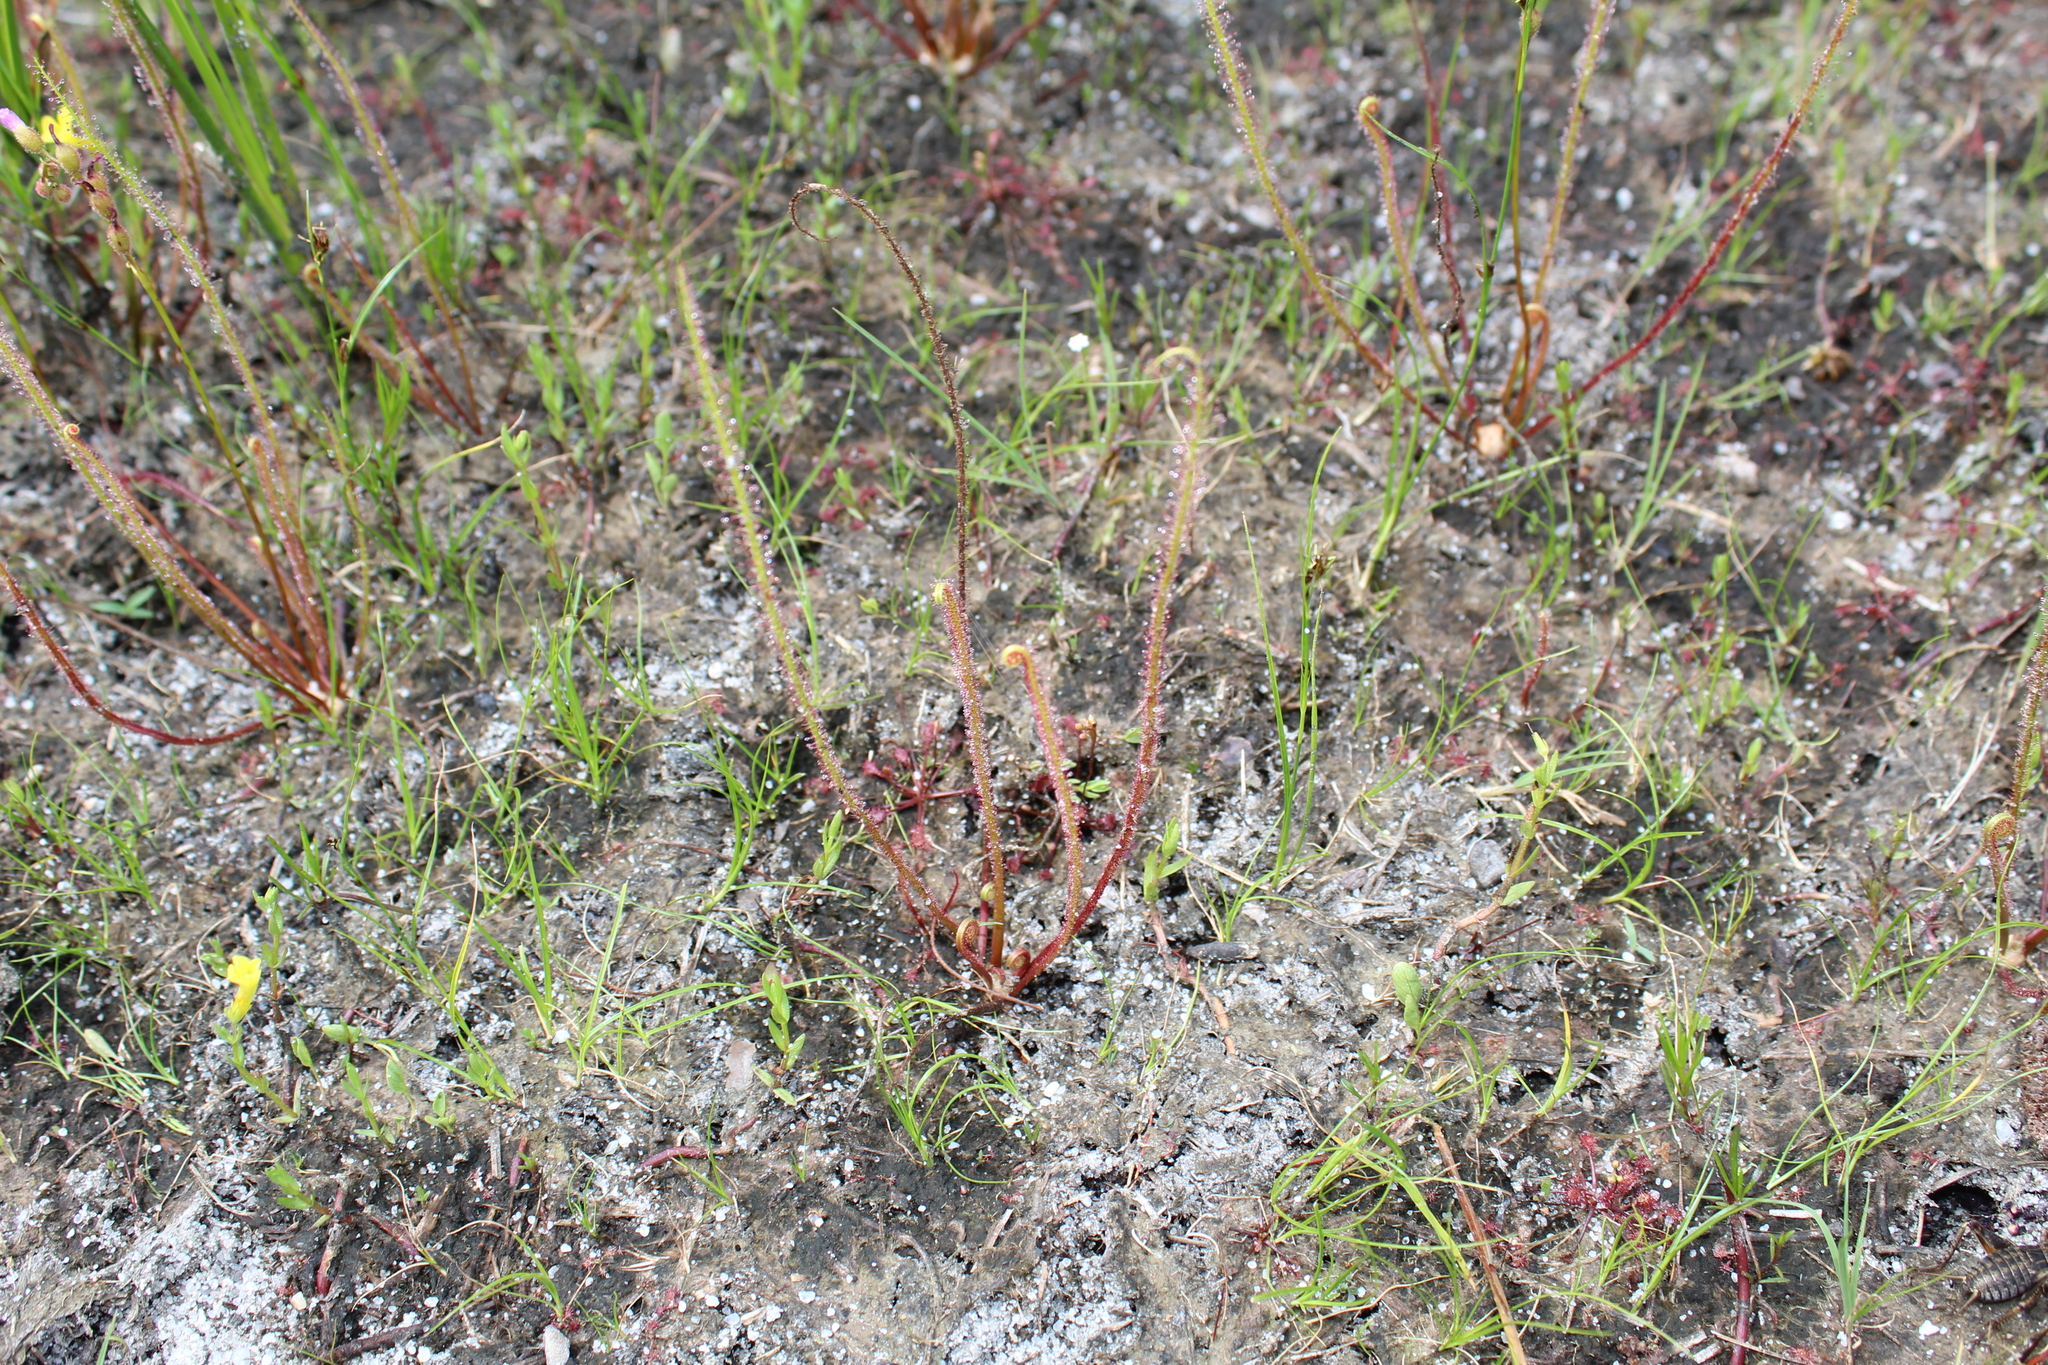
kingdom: Plantae
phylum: Tracheophyta
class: Magnoliopsida
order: Caryophyllales
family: Droseraceae
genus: Drosera
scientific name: Drosera filiformis
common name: Dew-thread
